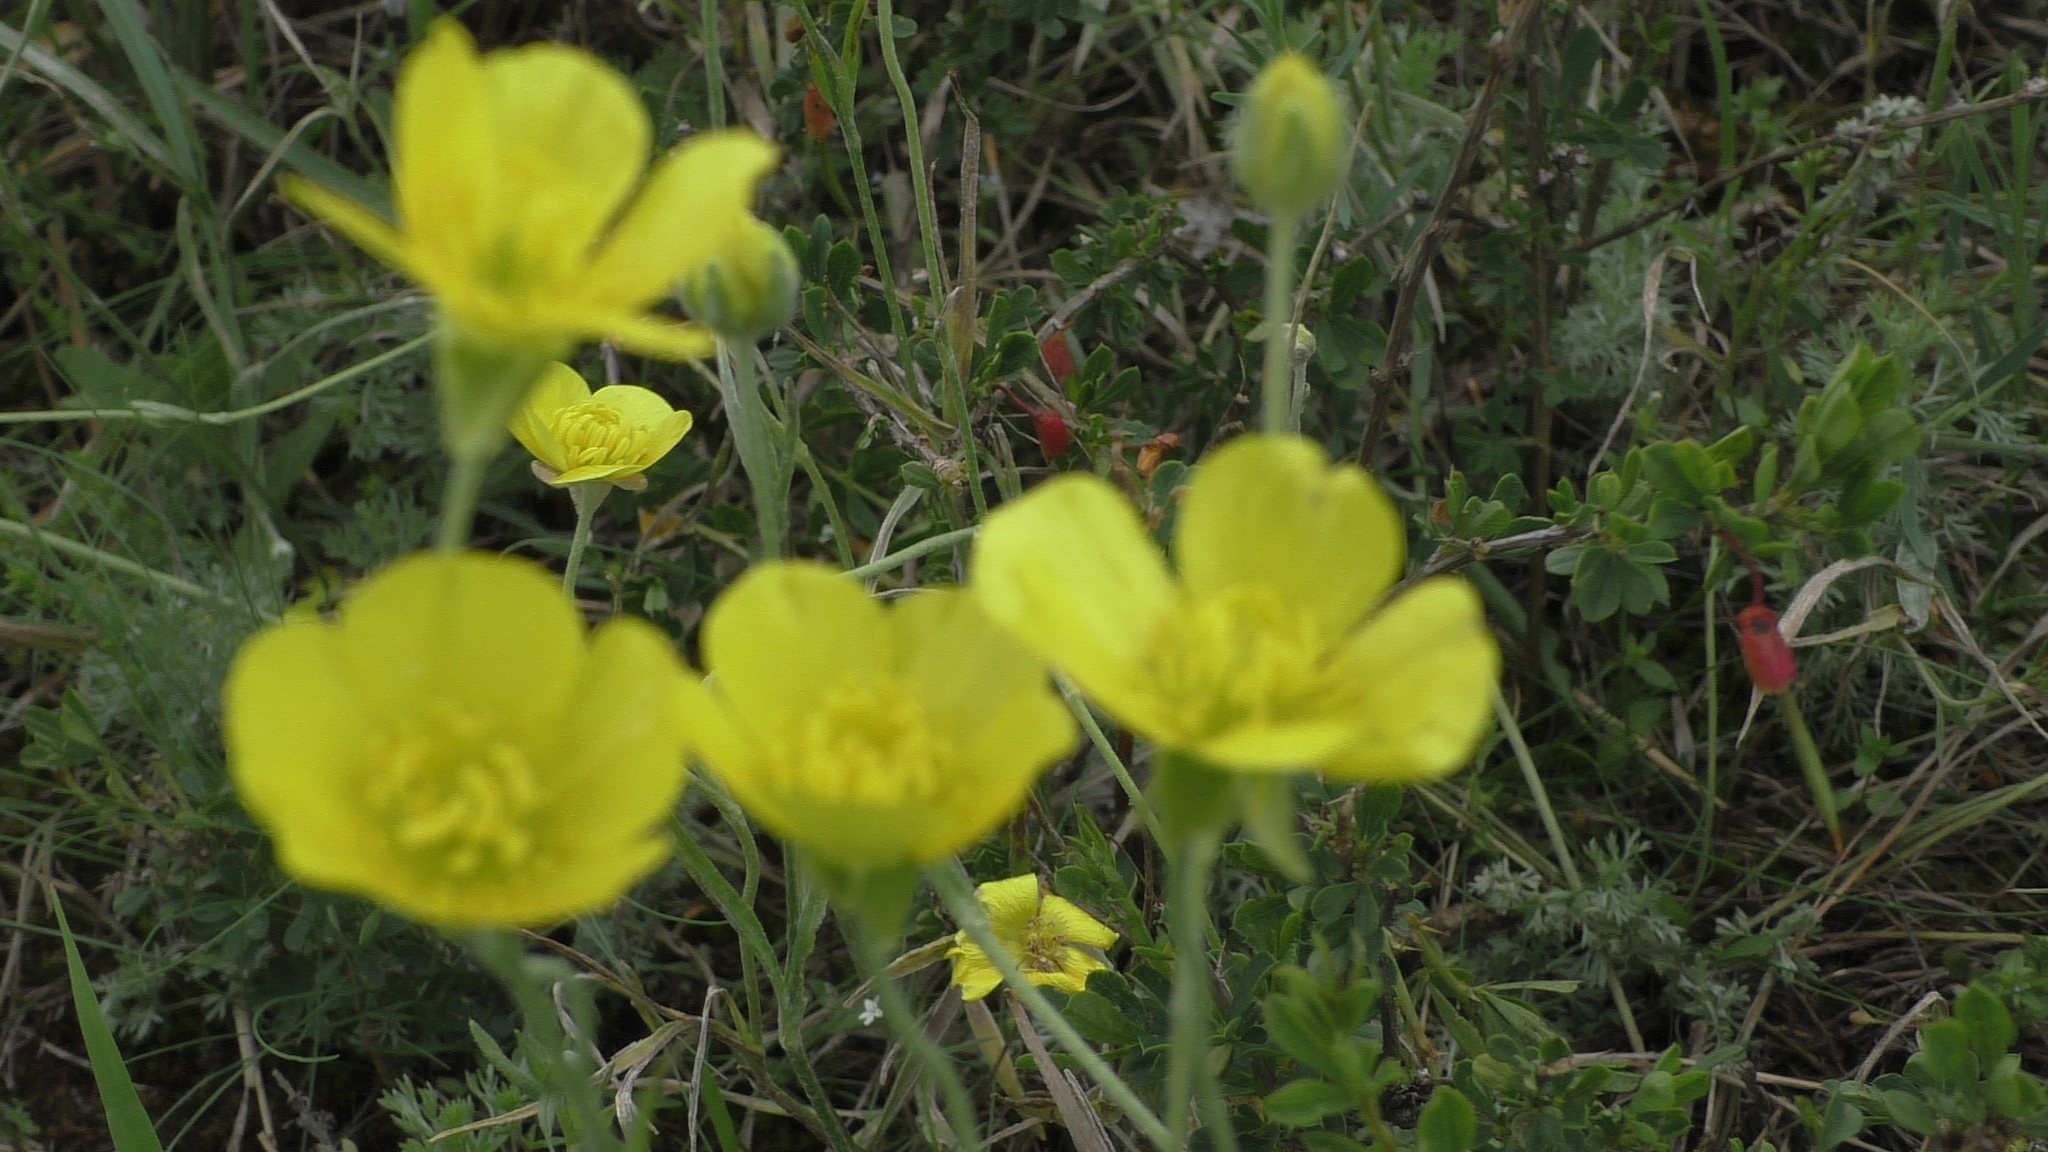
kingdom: Plantae
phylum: Tracheophyta
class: Magnoliopsida
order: Ranunculales
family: Ranunculaceae
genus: Ranunculus
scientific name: Ranunculus illyricus
